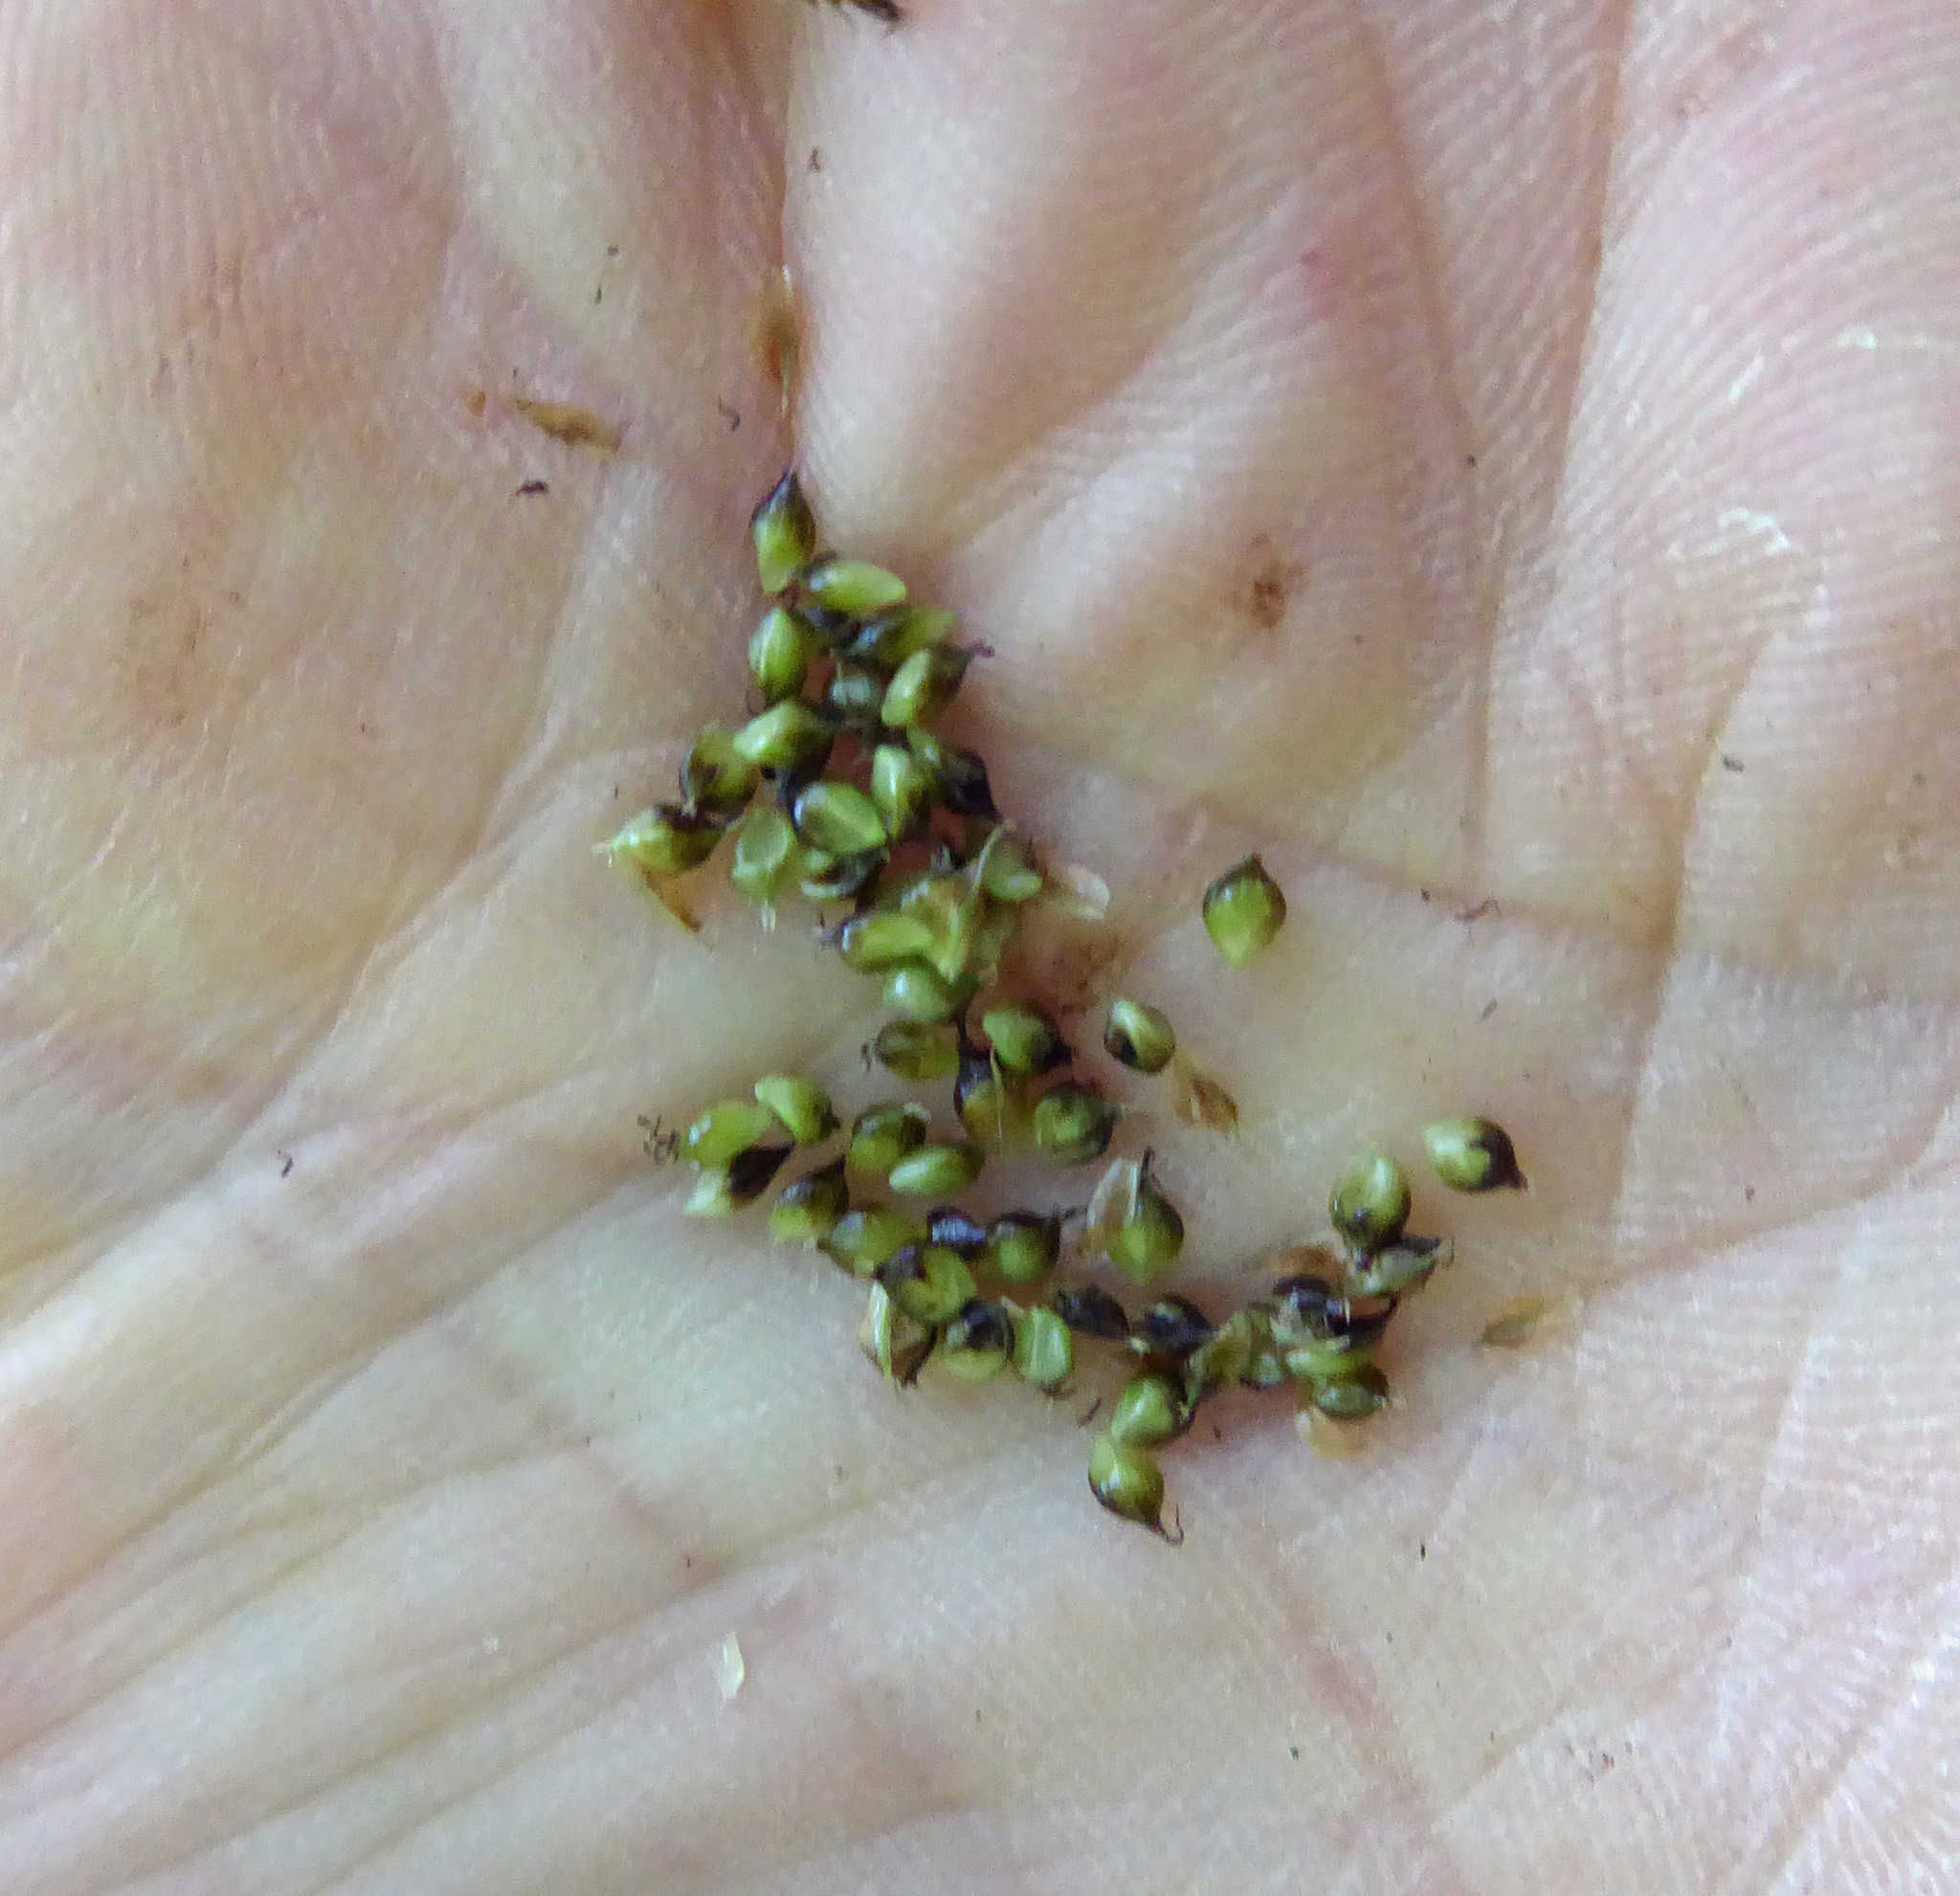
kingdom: Plantae
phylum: Tracheophyta
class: Liliopsida
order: Poales
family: Cyperaceae
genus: Carex
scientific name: Carex dissita
